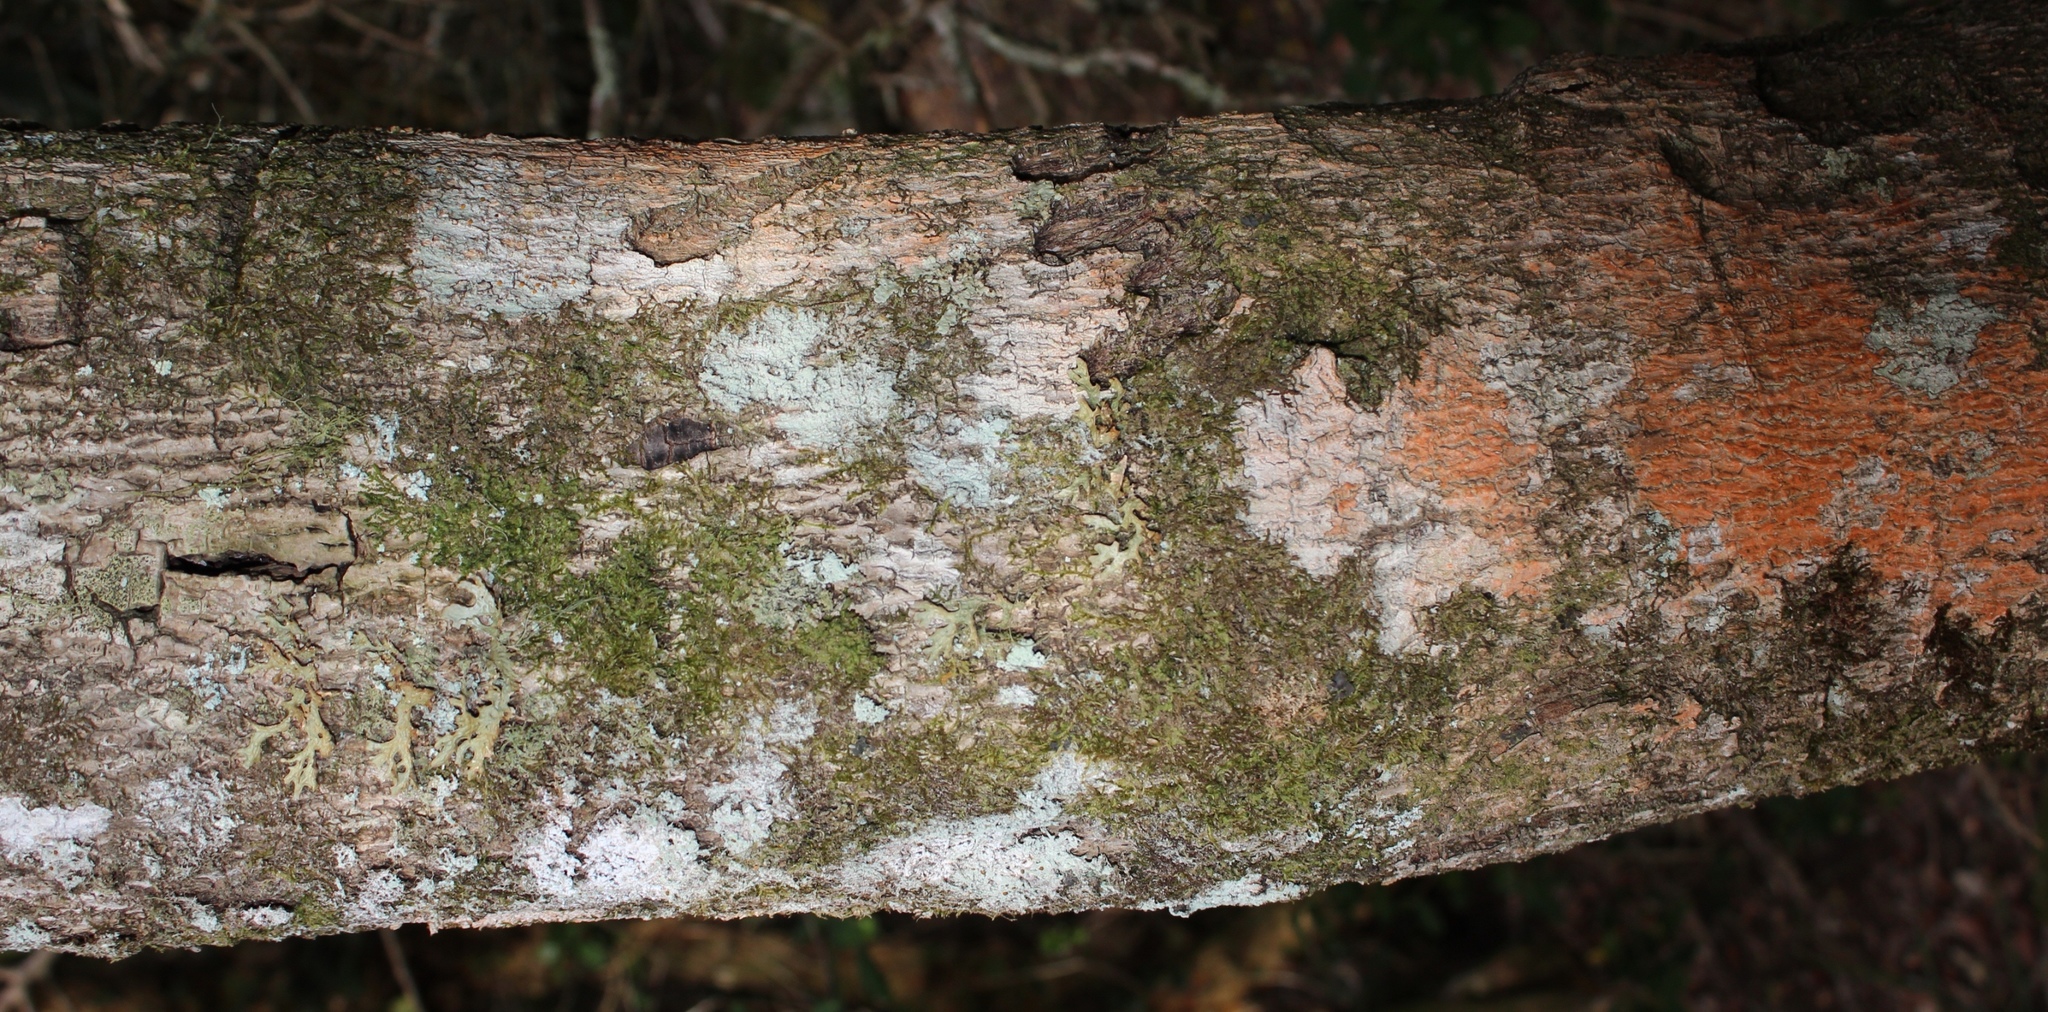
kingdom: Fungi
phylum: Ascomycota
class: Lecanoromycetes
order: Peltigerales
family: Lobariaceae
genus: Lobaria
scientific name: Lobaria pulmonaria
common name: Lungwort
